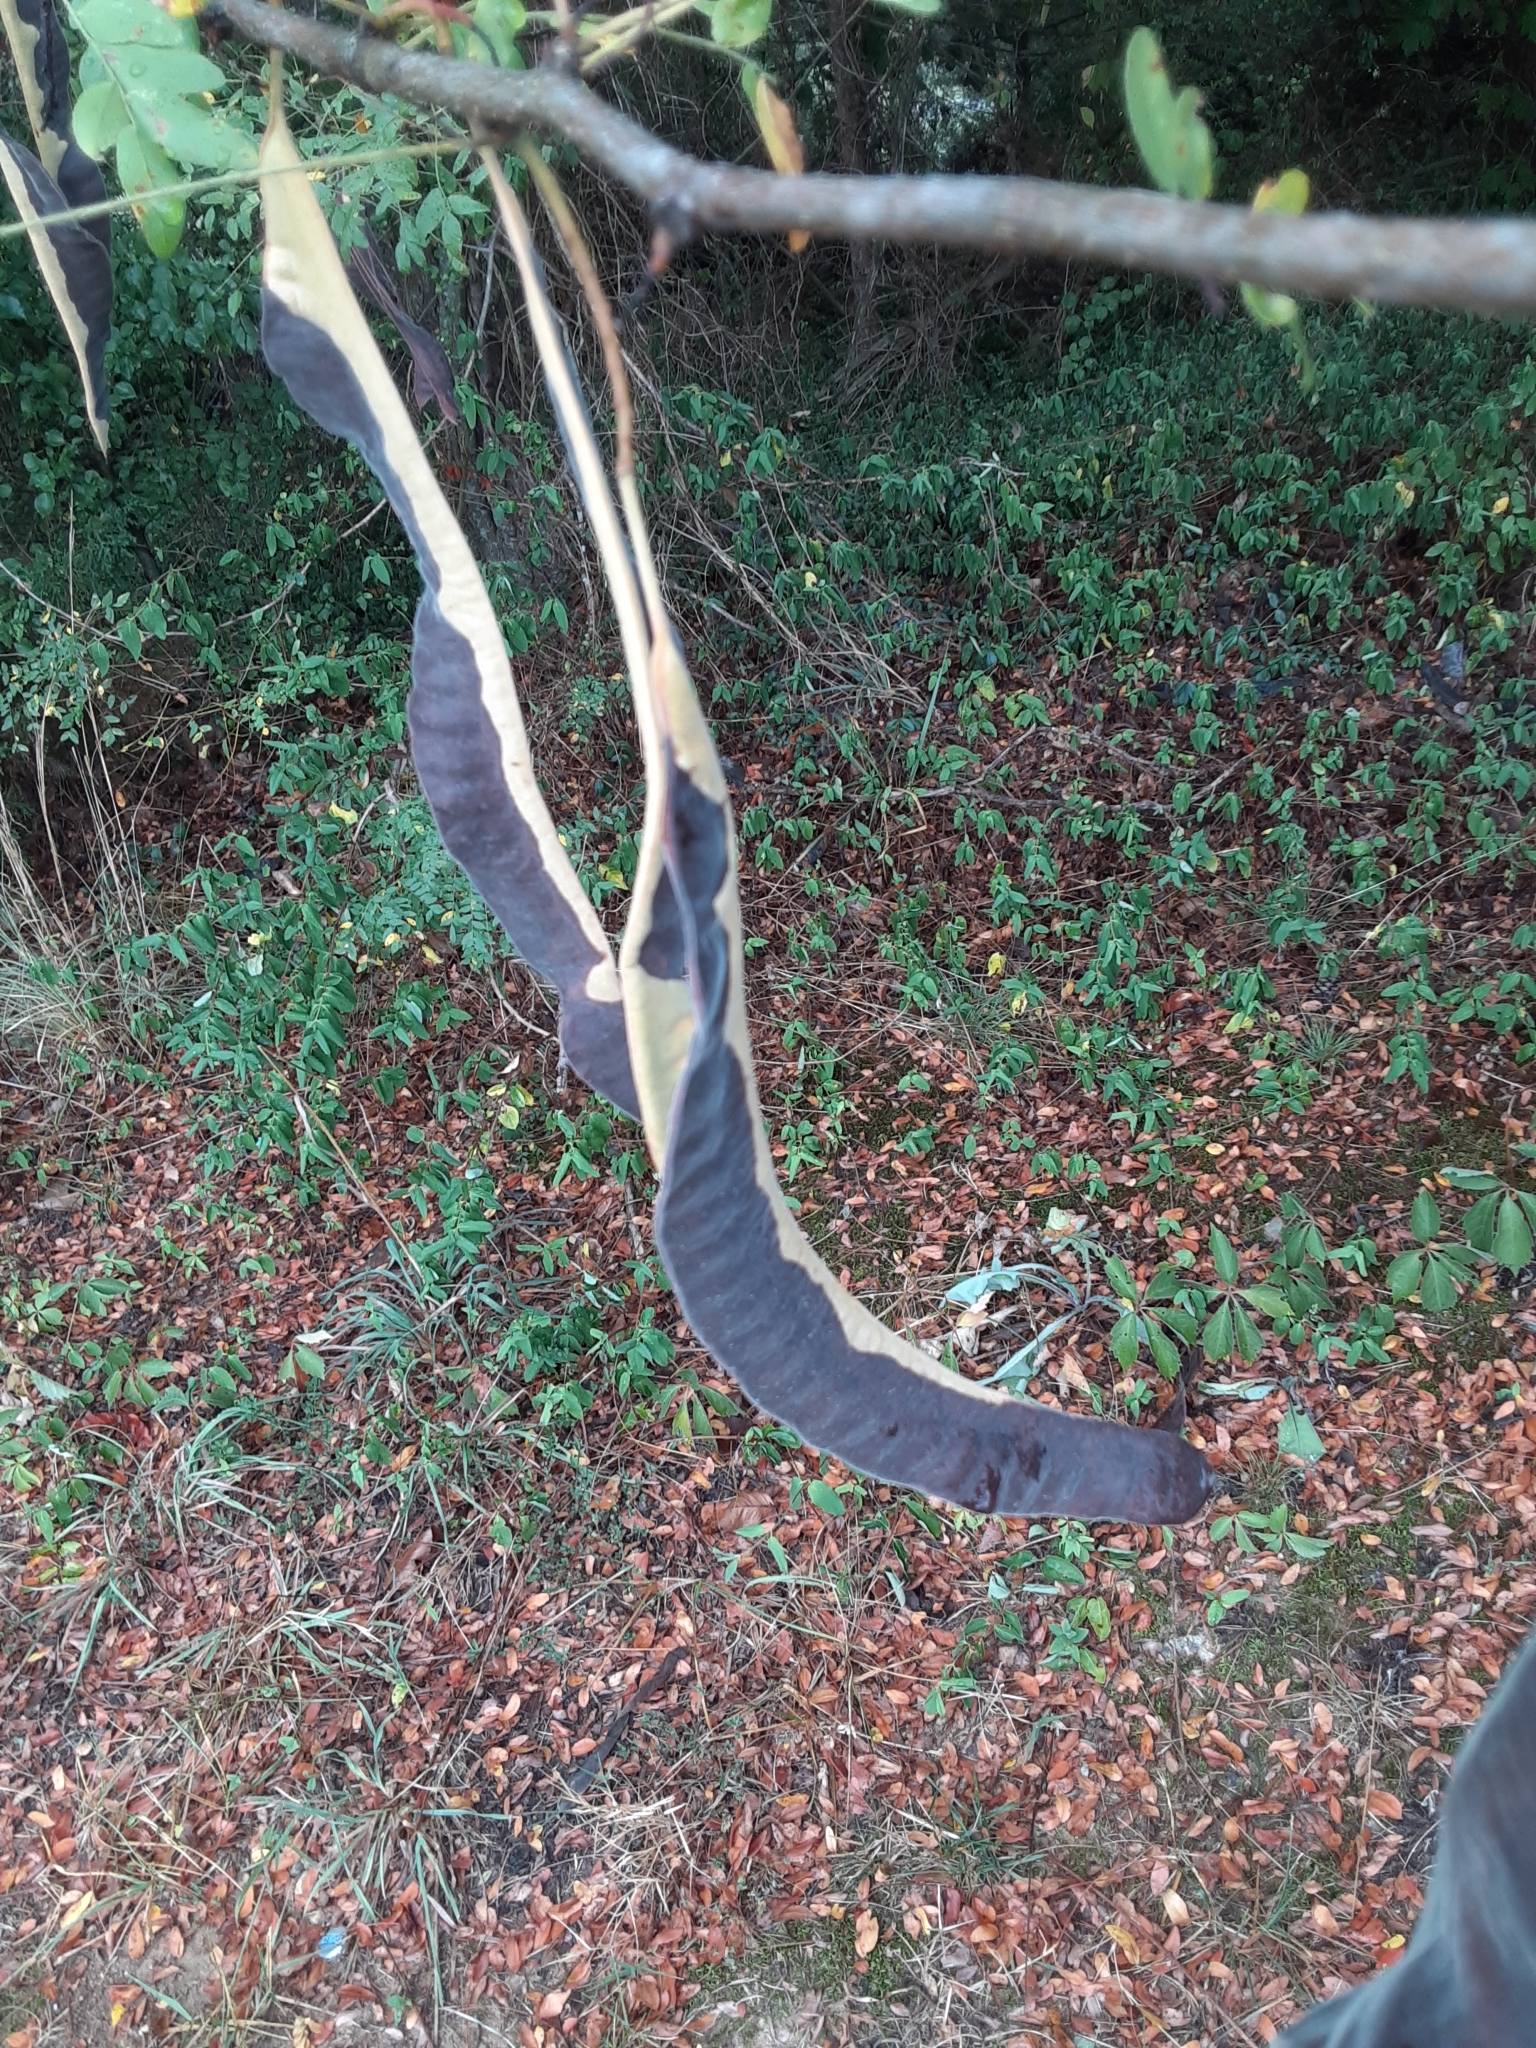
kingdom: Plantae
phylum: Tracheophyta
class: Magnoliopsida
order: Fabales
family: Fabaceae
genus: Gleditsia
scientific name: Gleditsia triacanthos
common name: Common honeylocust
